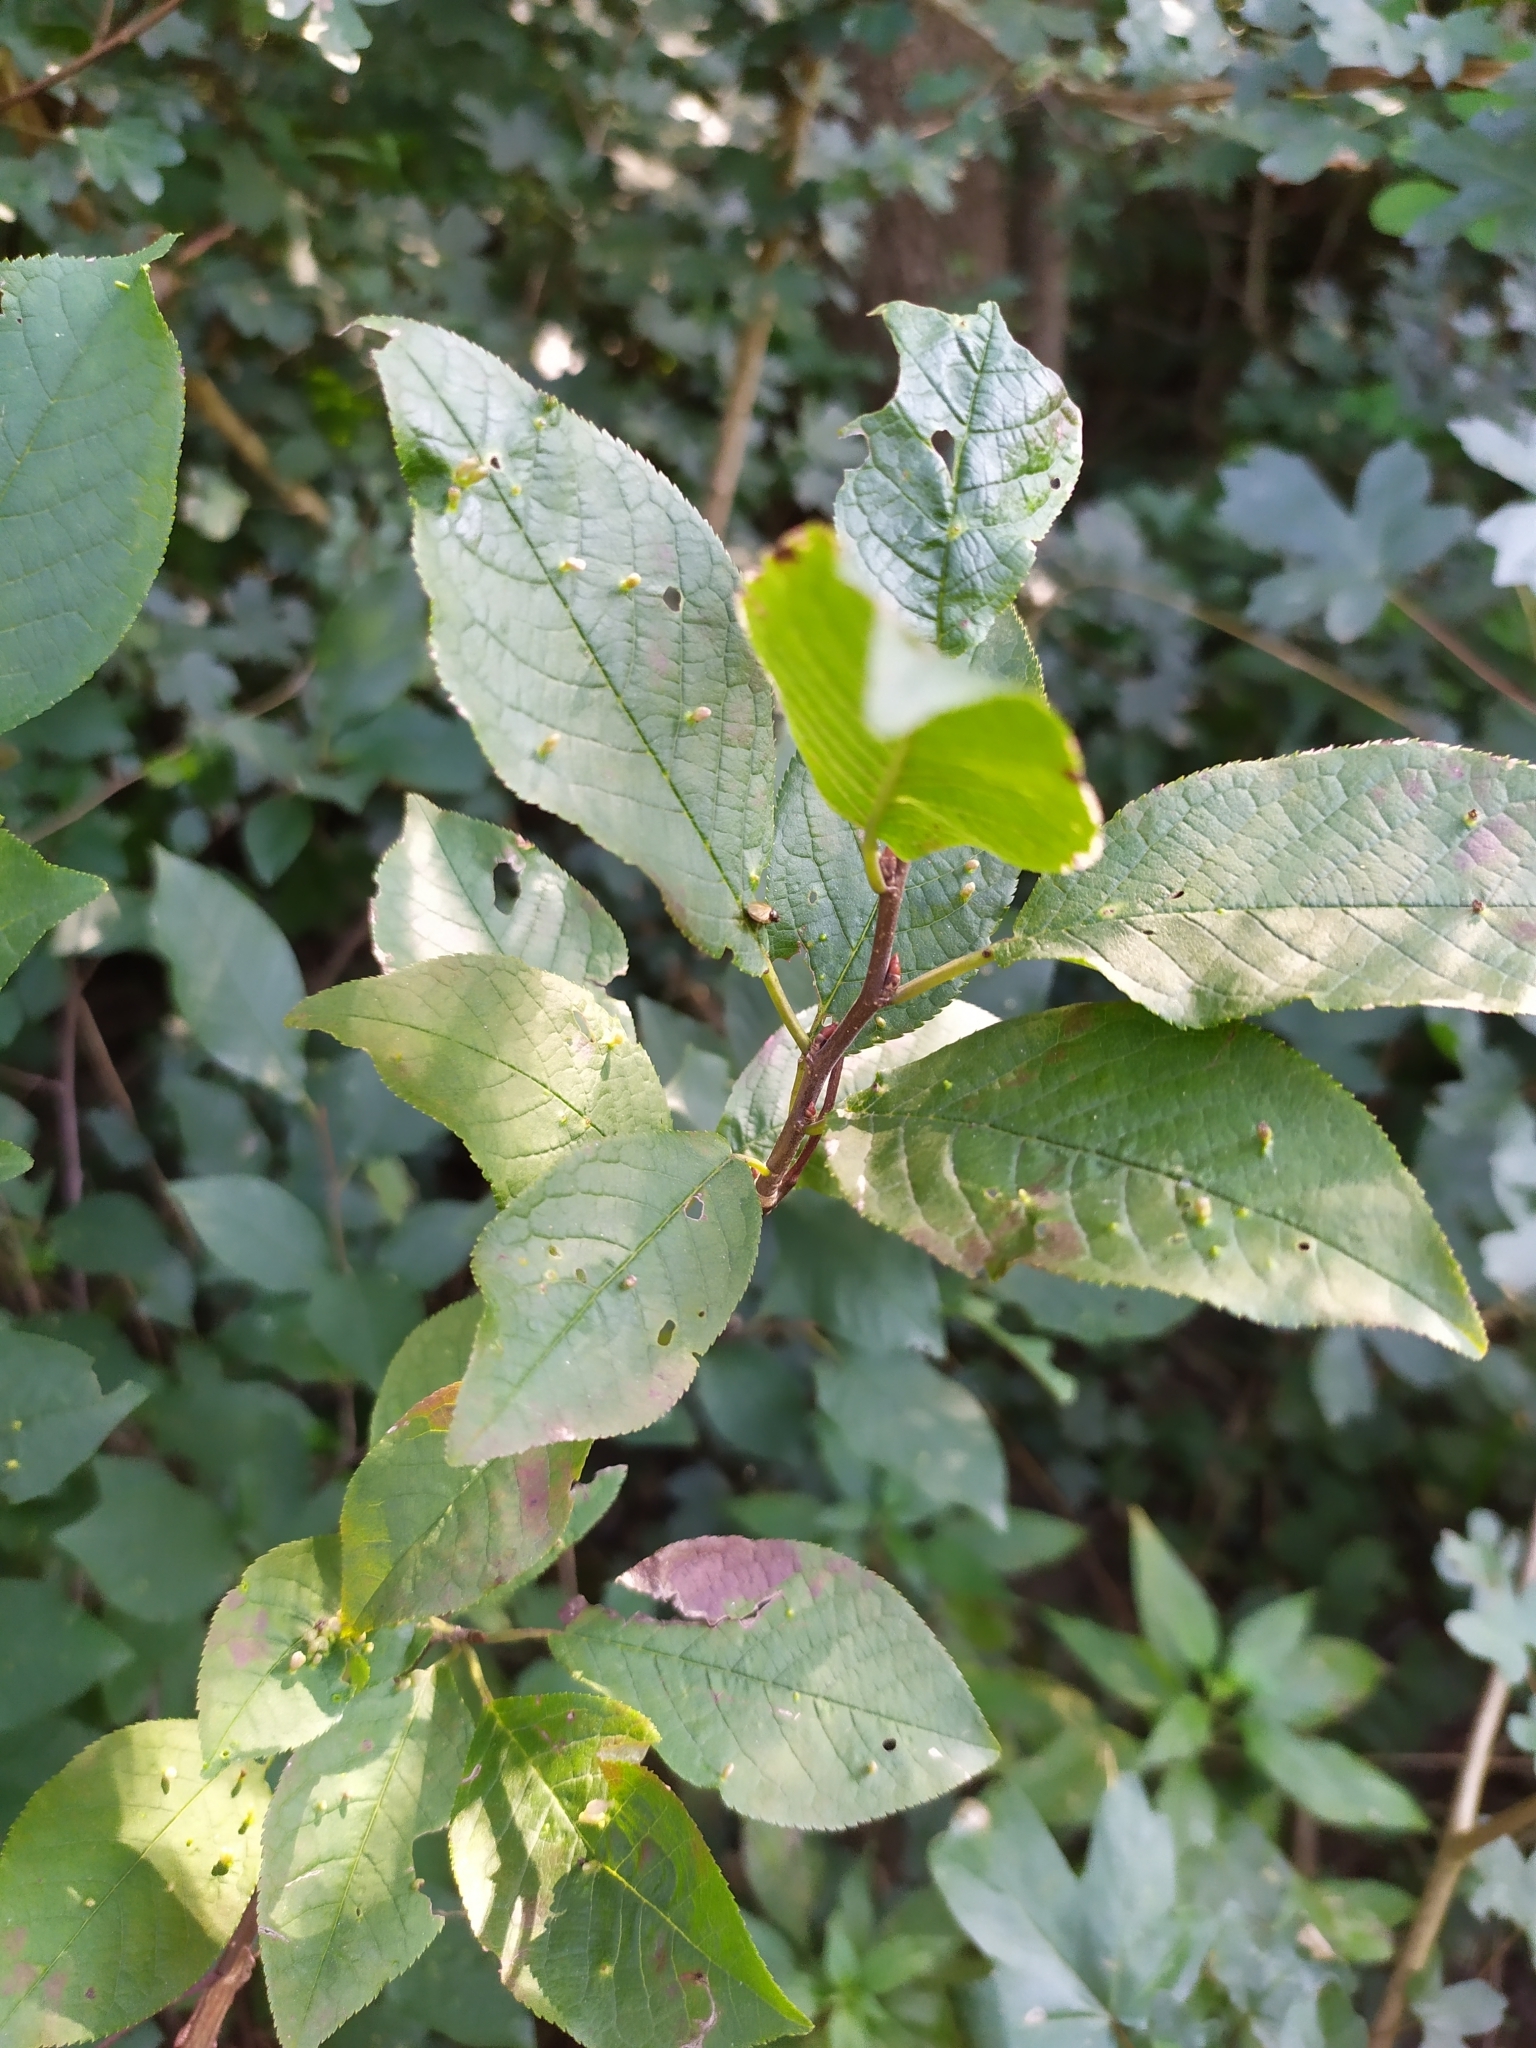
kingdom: Plantae
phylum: Tracheophyta
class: Magnoliopsida
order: Rosales
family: Rosaceae
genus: Prunus
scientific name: Prunus padus
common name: Bird cherry
